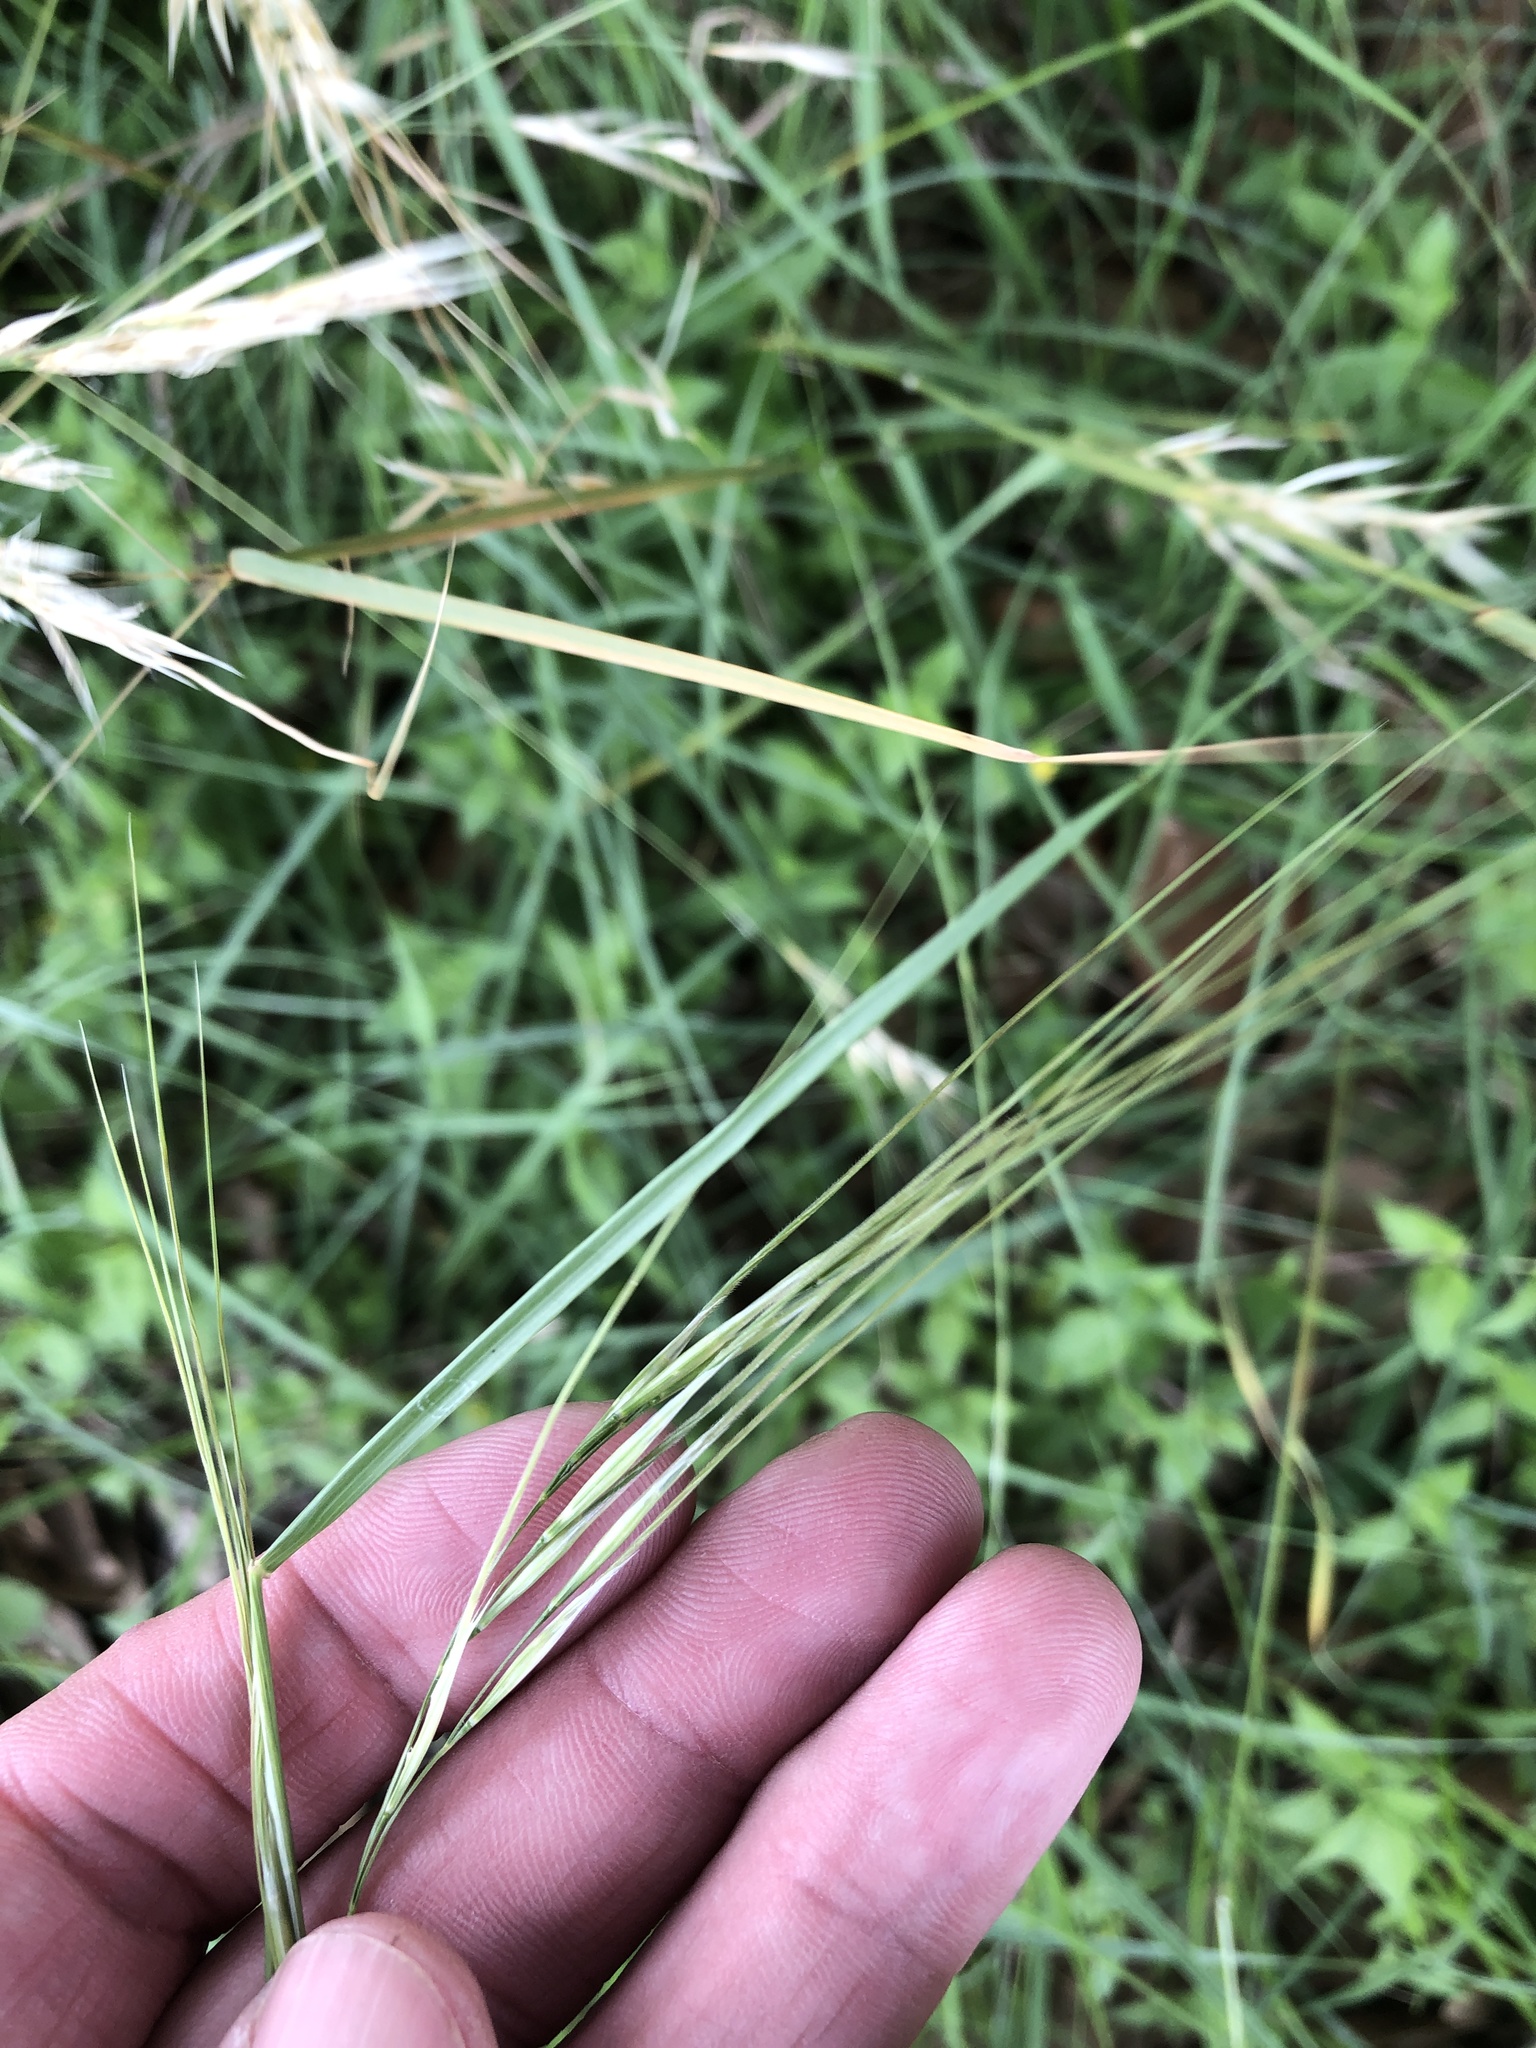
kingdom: Plantae
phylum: Tracheophyta
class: Liliopsida
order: Poales
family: Poaceae
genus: Nassella
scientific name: Nassella leucotricha
